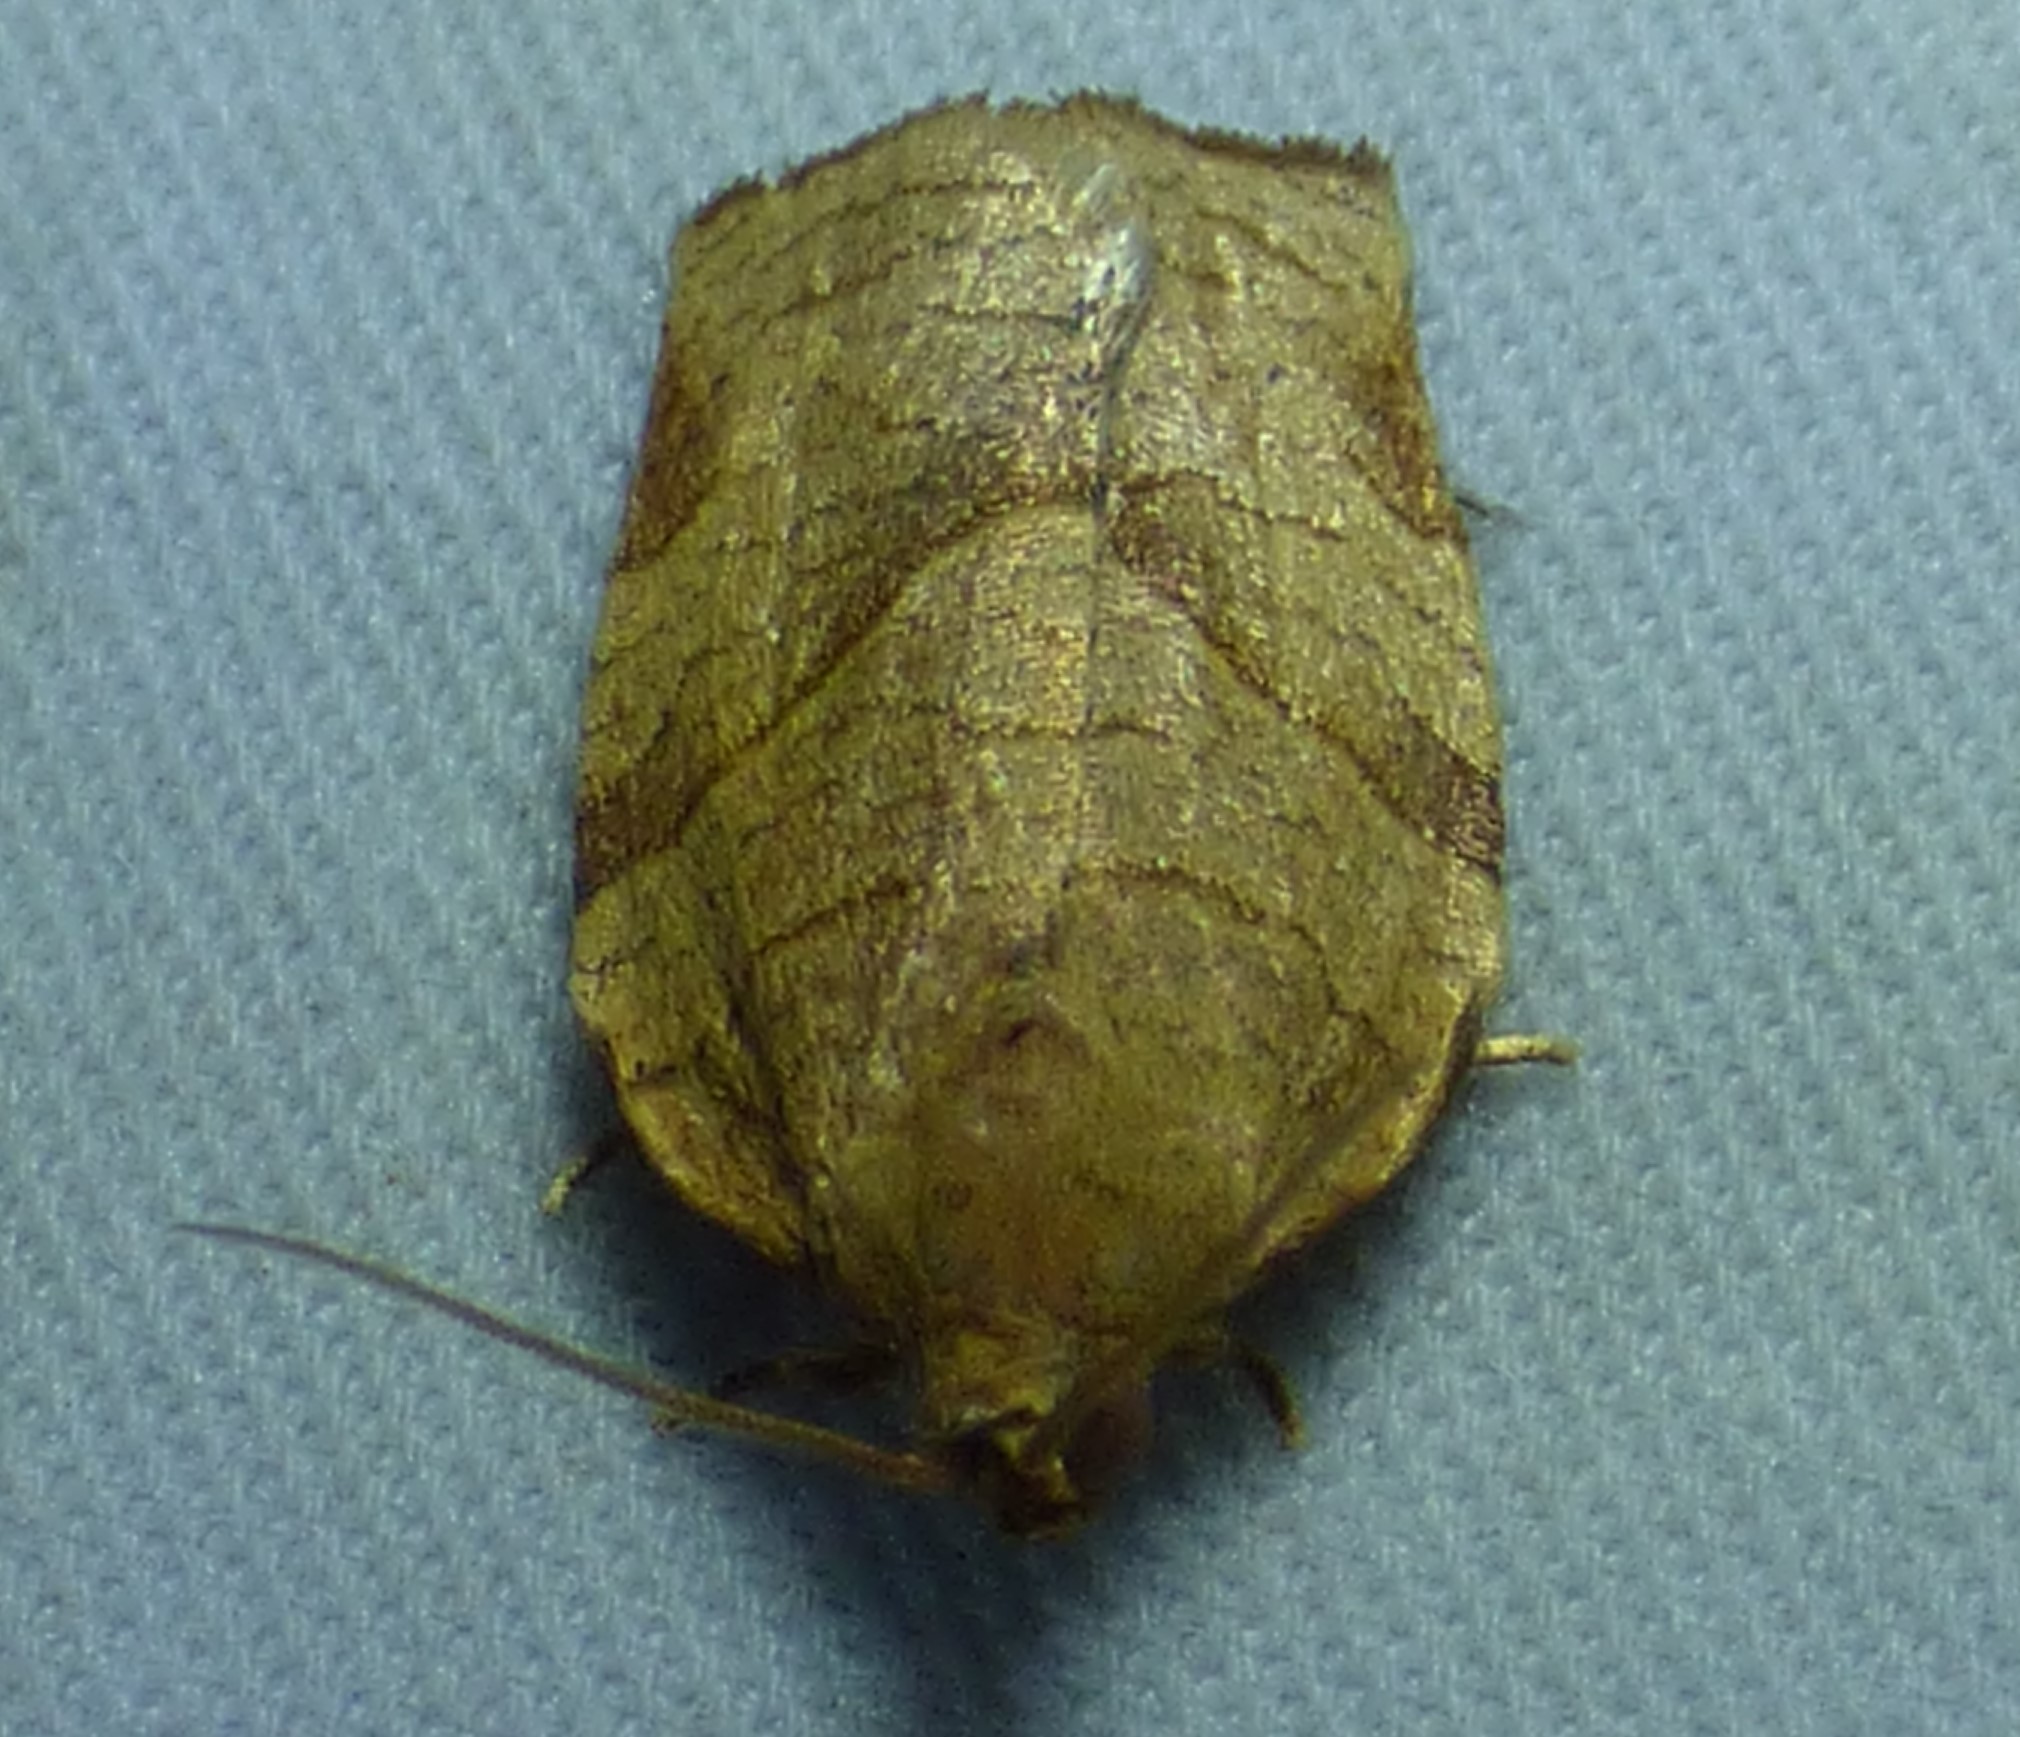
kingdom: Animalia
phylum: Arthropoda
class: Insecta
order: Lepidoptera
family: Tortricidae
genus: Choristoneura
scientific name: Choristoneura rosaceana
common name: Oblique-banded leafroller moth
